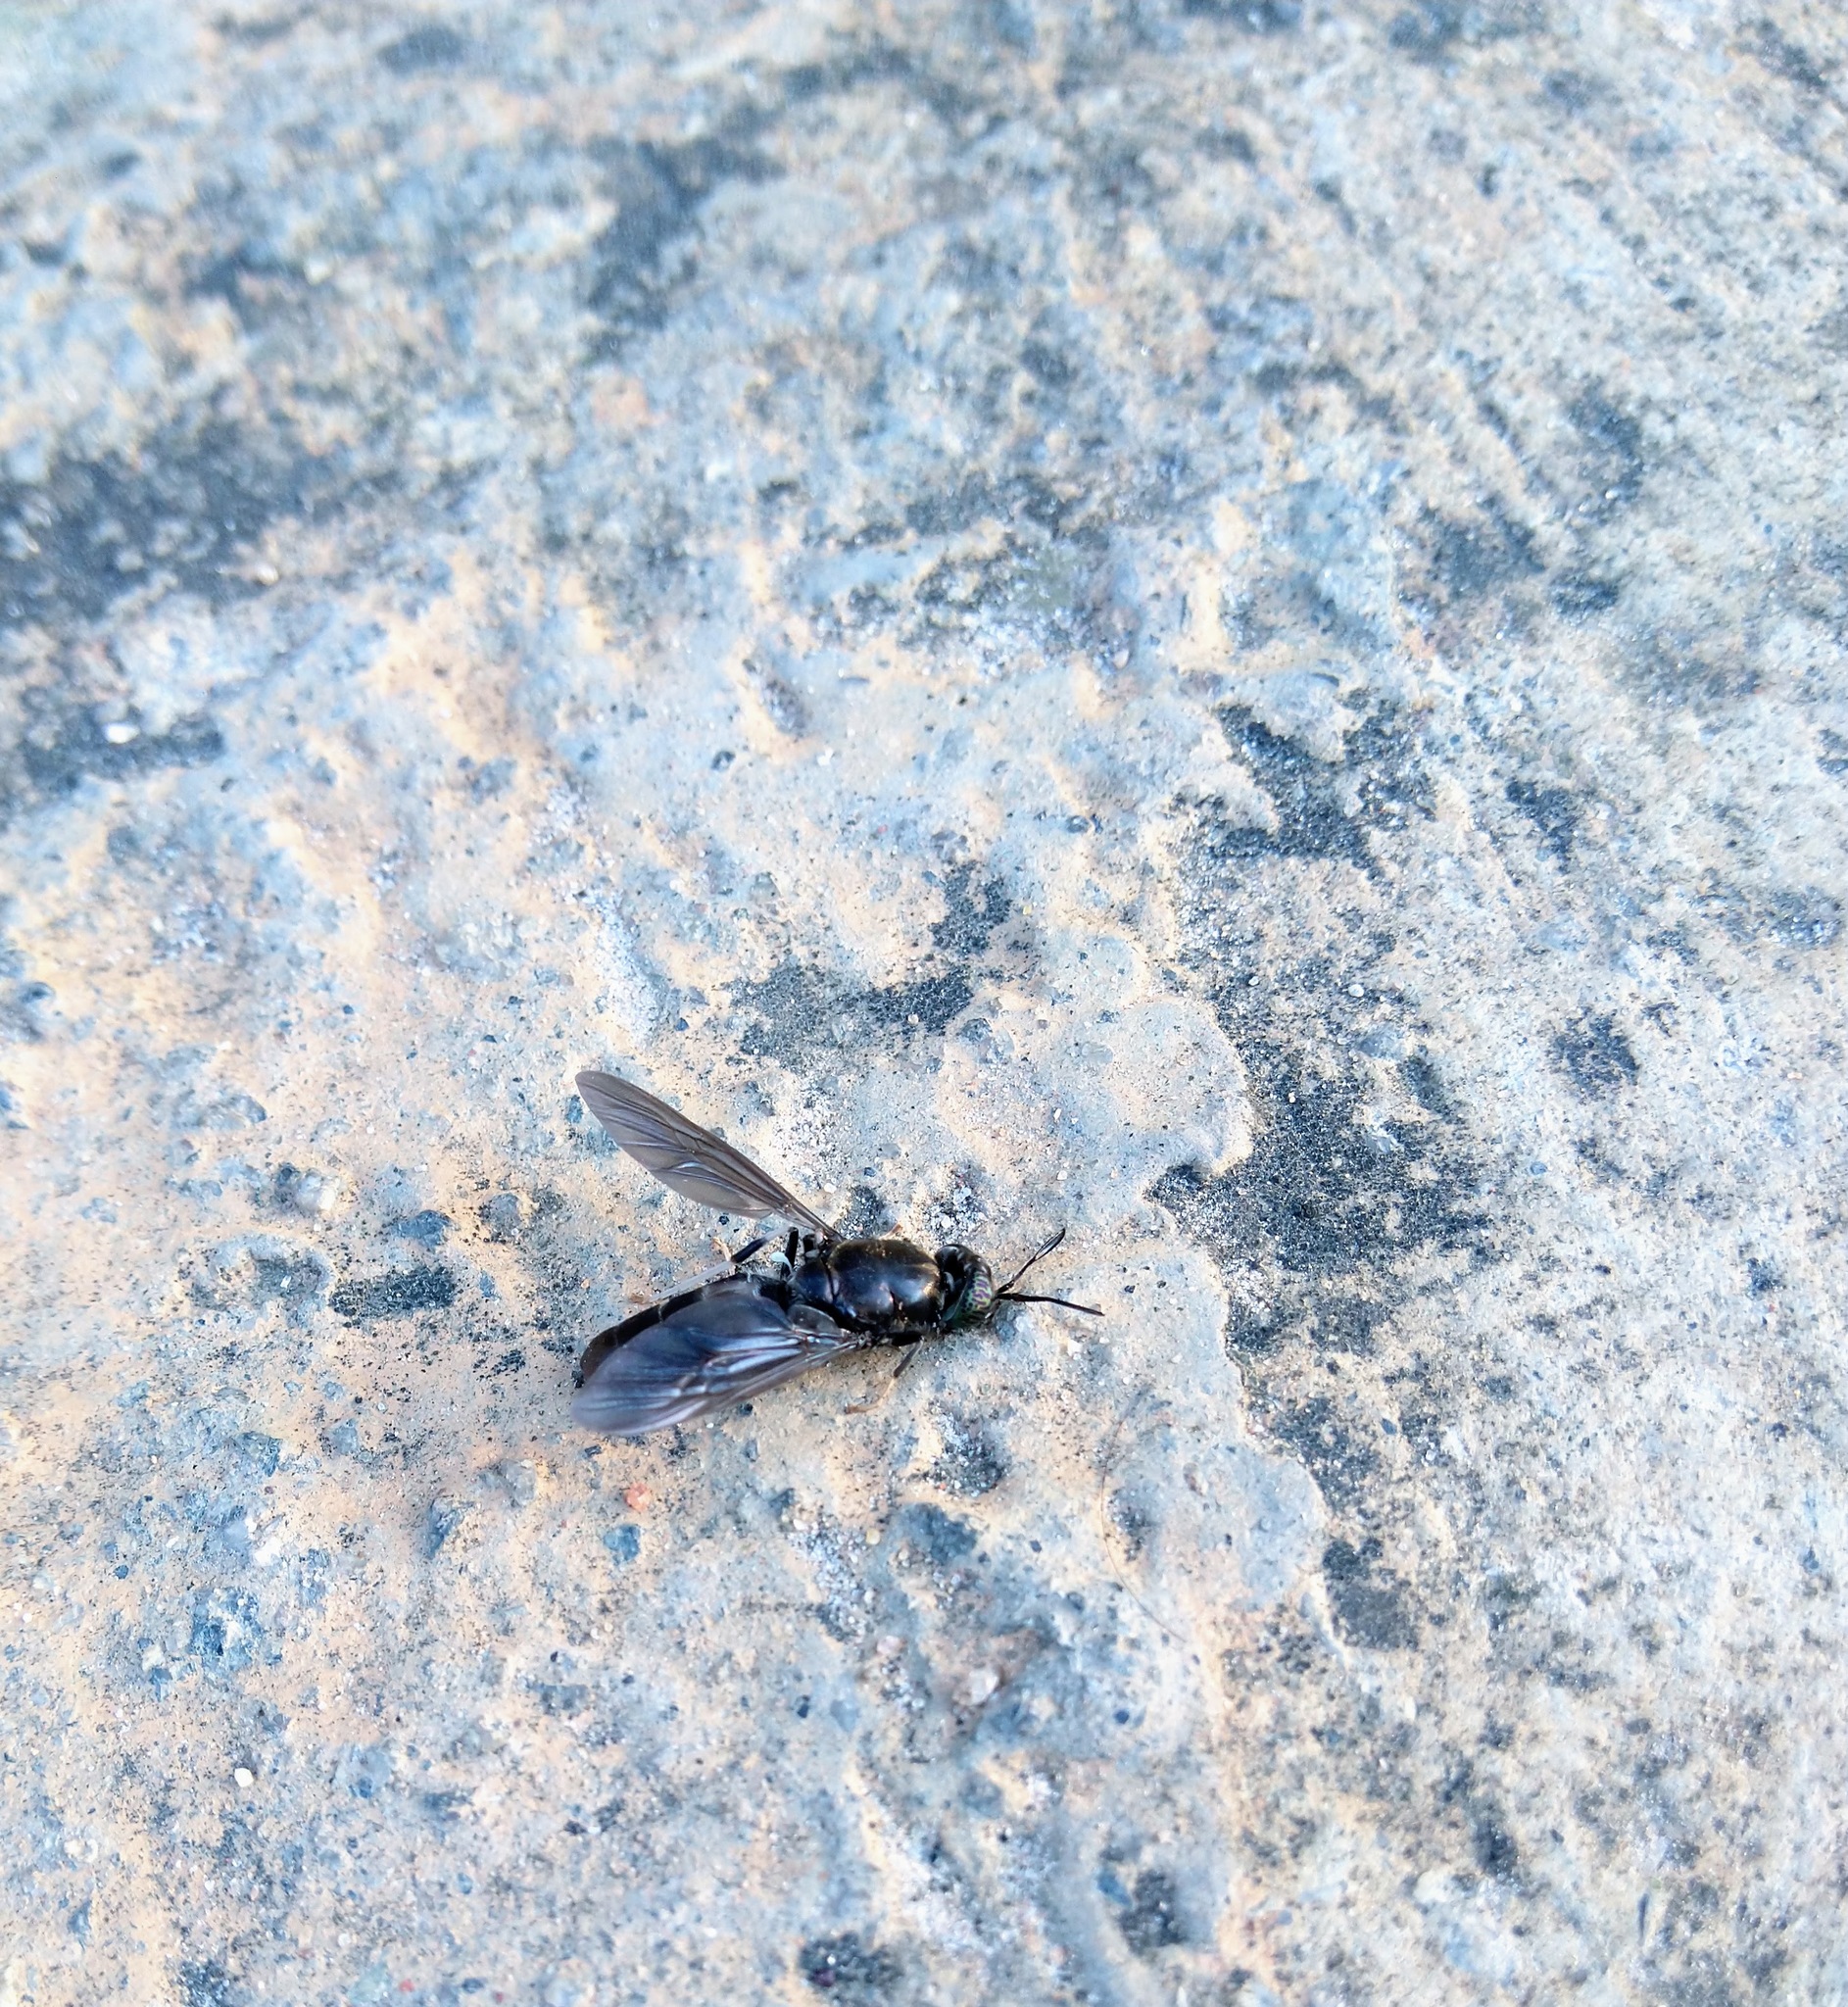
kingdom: Animalia
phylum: Arthropoda
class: Insecta
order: Diptera
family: Stratiomyidae
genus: Hermetia
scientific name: Hermetia illucens
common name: Black soldier fly
